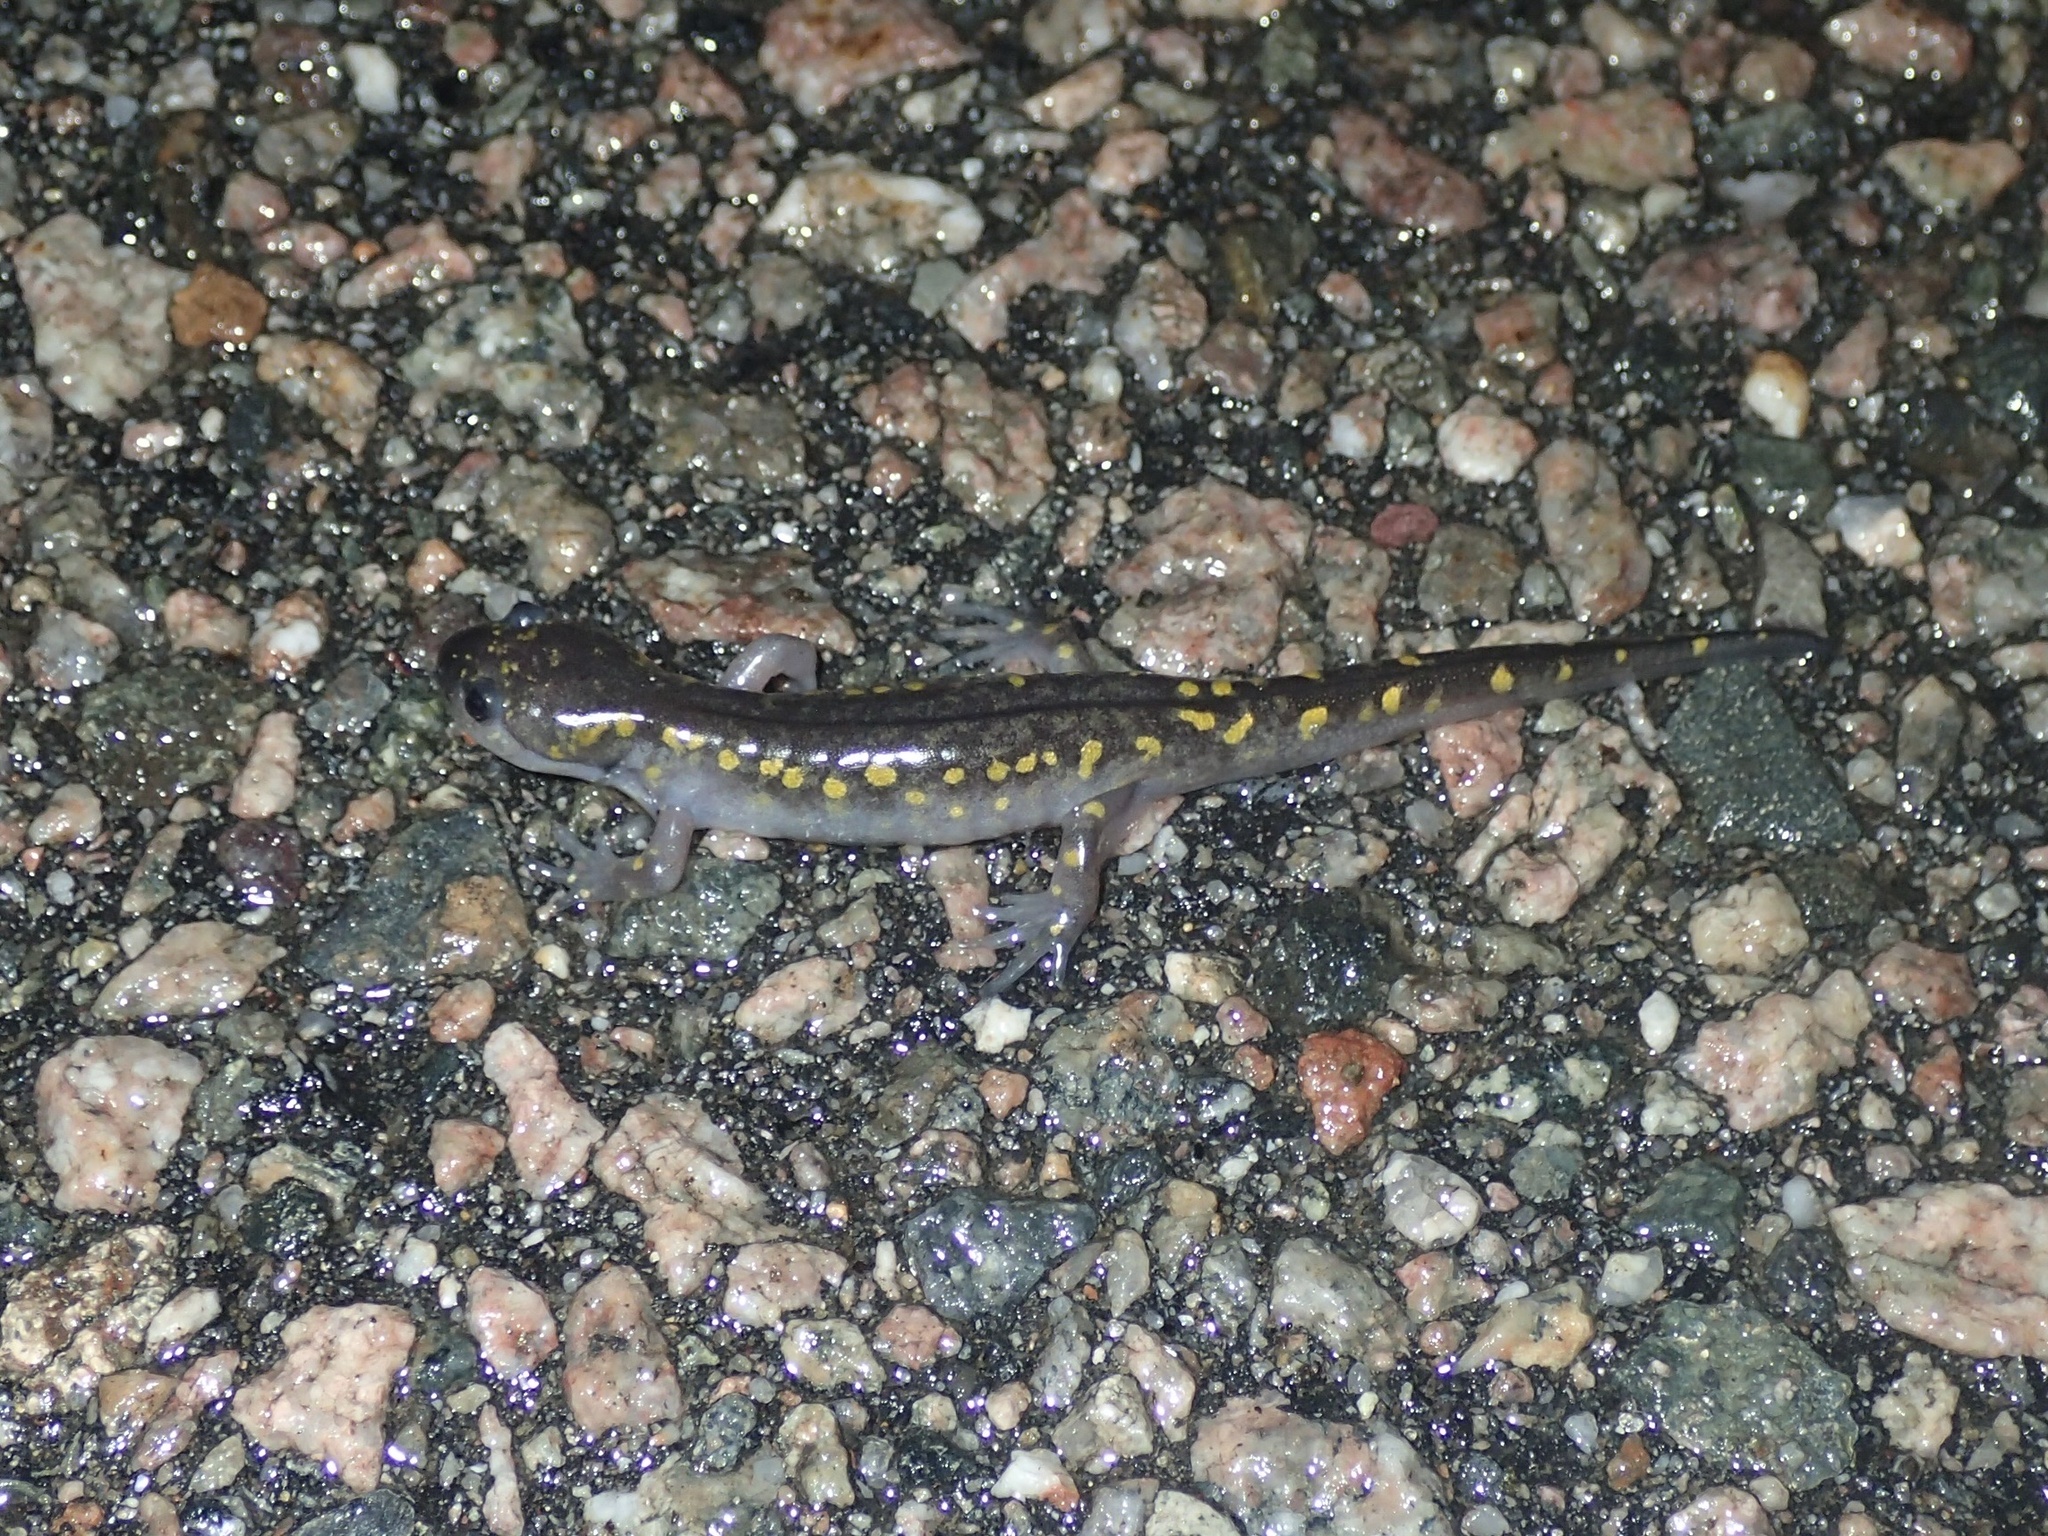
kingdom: Animalia
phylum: Chordata
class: Amphibia
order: Caudata
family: Ambystomatidae
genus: Ambystoma
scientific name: Ambystoma maculatum
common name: Spotted salamander
